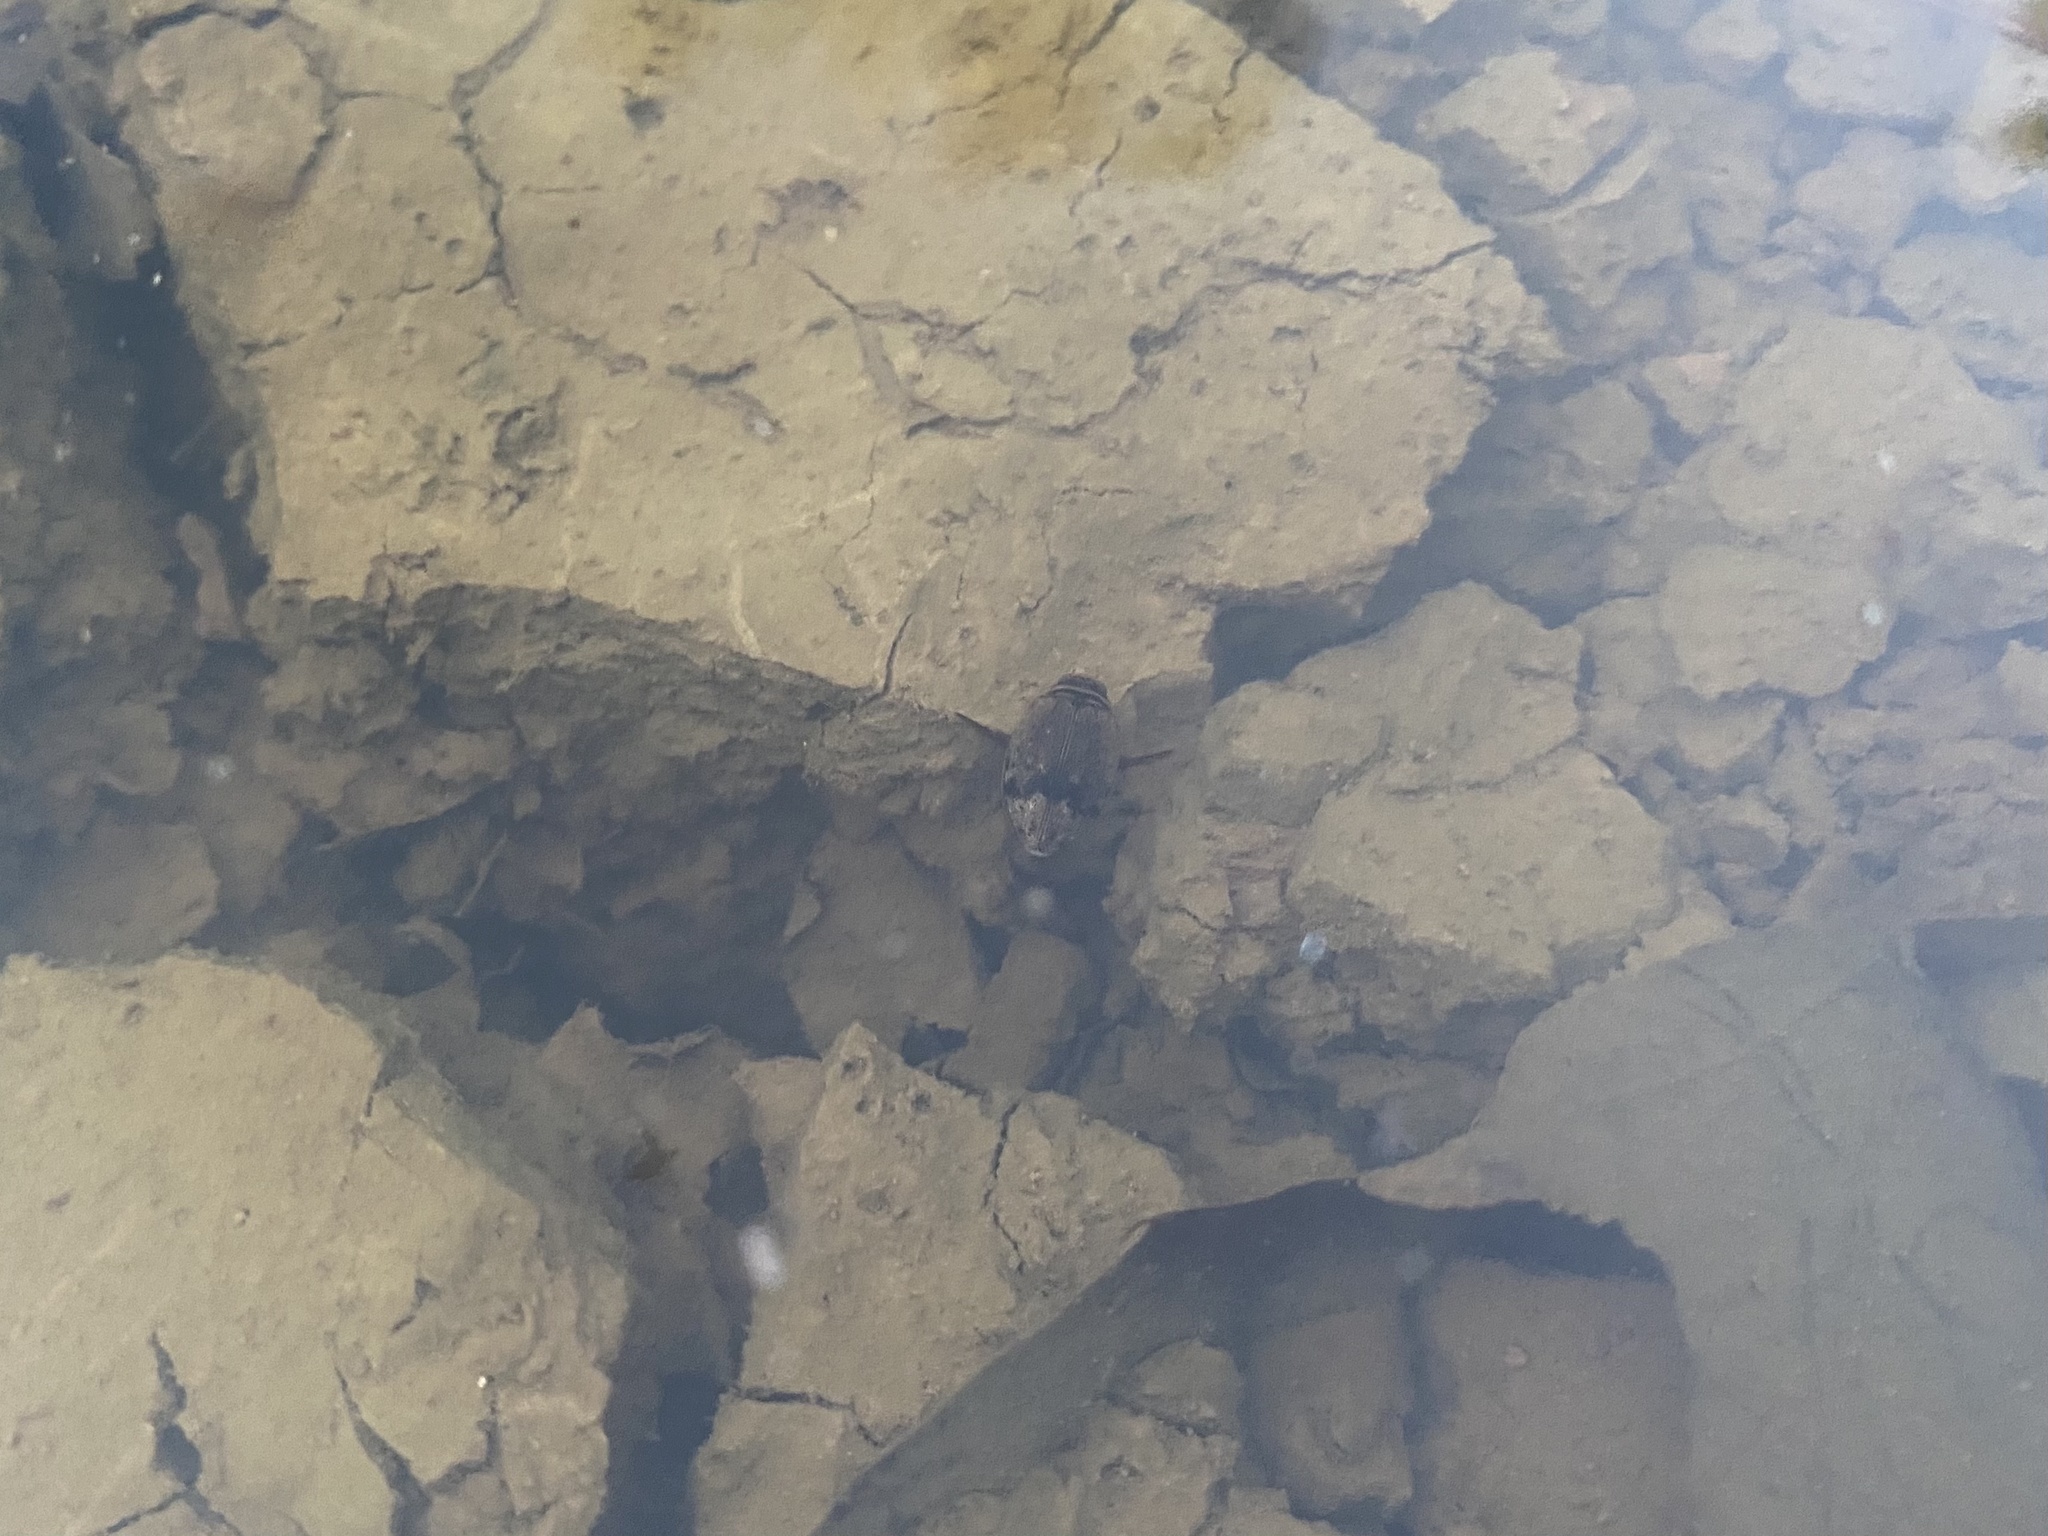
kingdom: Animalia
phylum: Arthropoda
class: Insecta
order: Coleoptera
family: Dytiscidae
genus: Thermonectus
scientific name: Thermonectus nigrofasciatus
